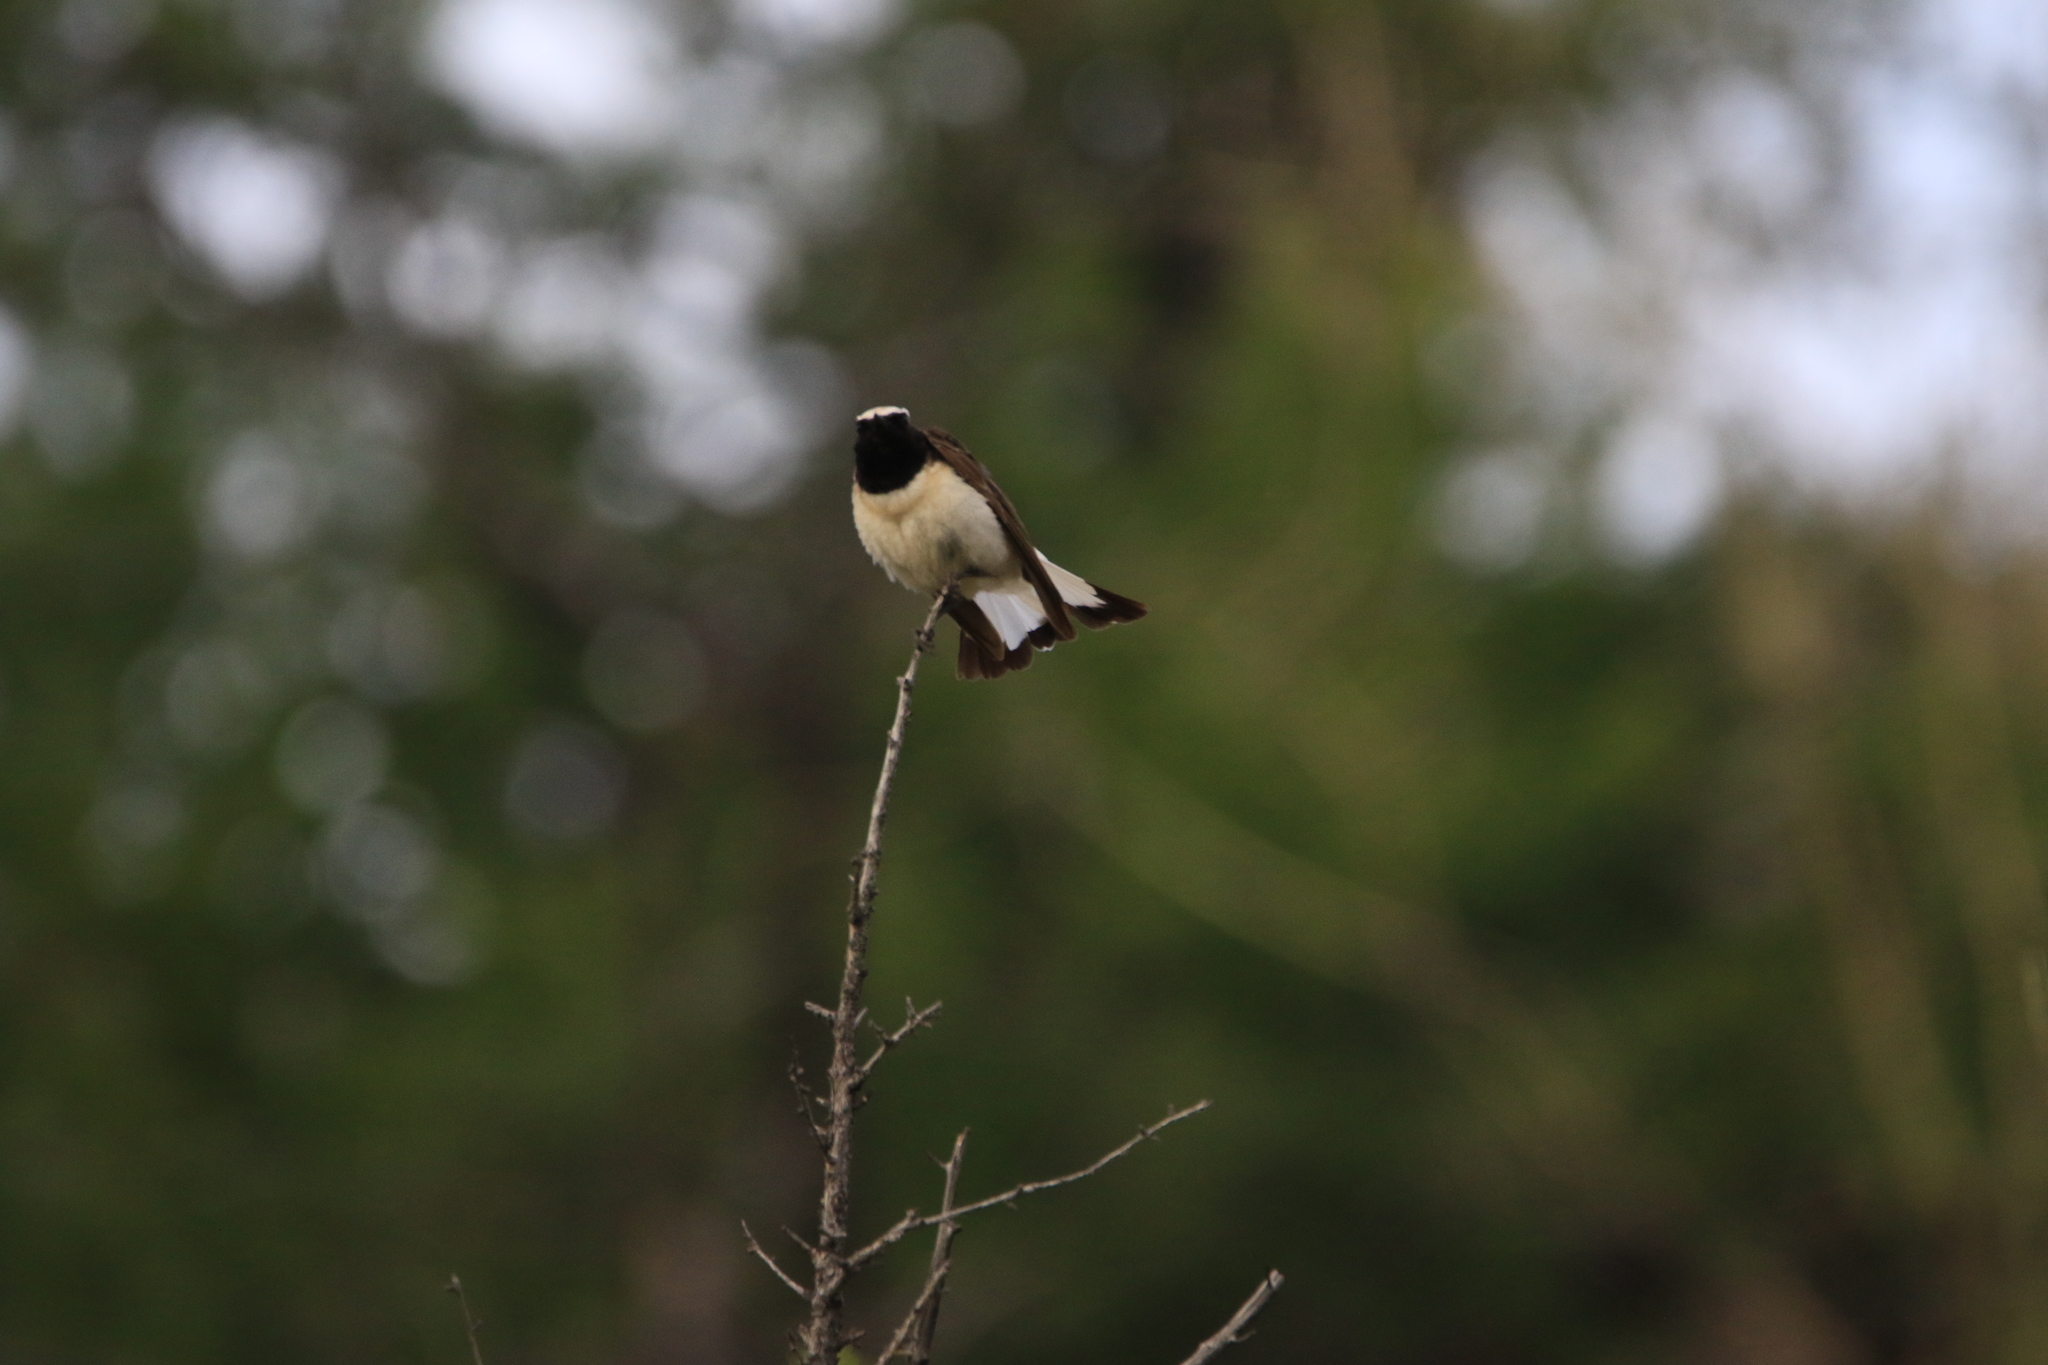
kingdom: Animalia
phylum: Chordata
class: Aves
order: Passeriformes
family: Muscicapidae
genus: Saxicola
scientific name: Saxicola maurus
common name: Siberian stonechat
